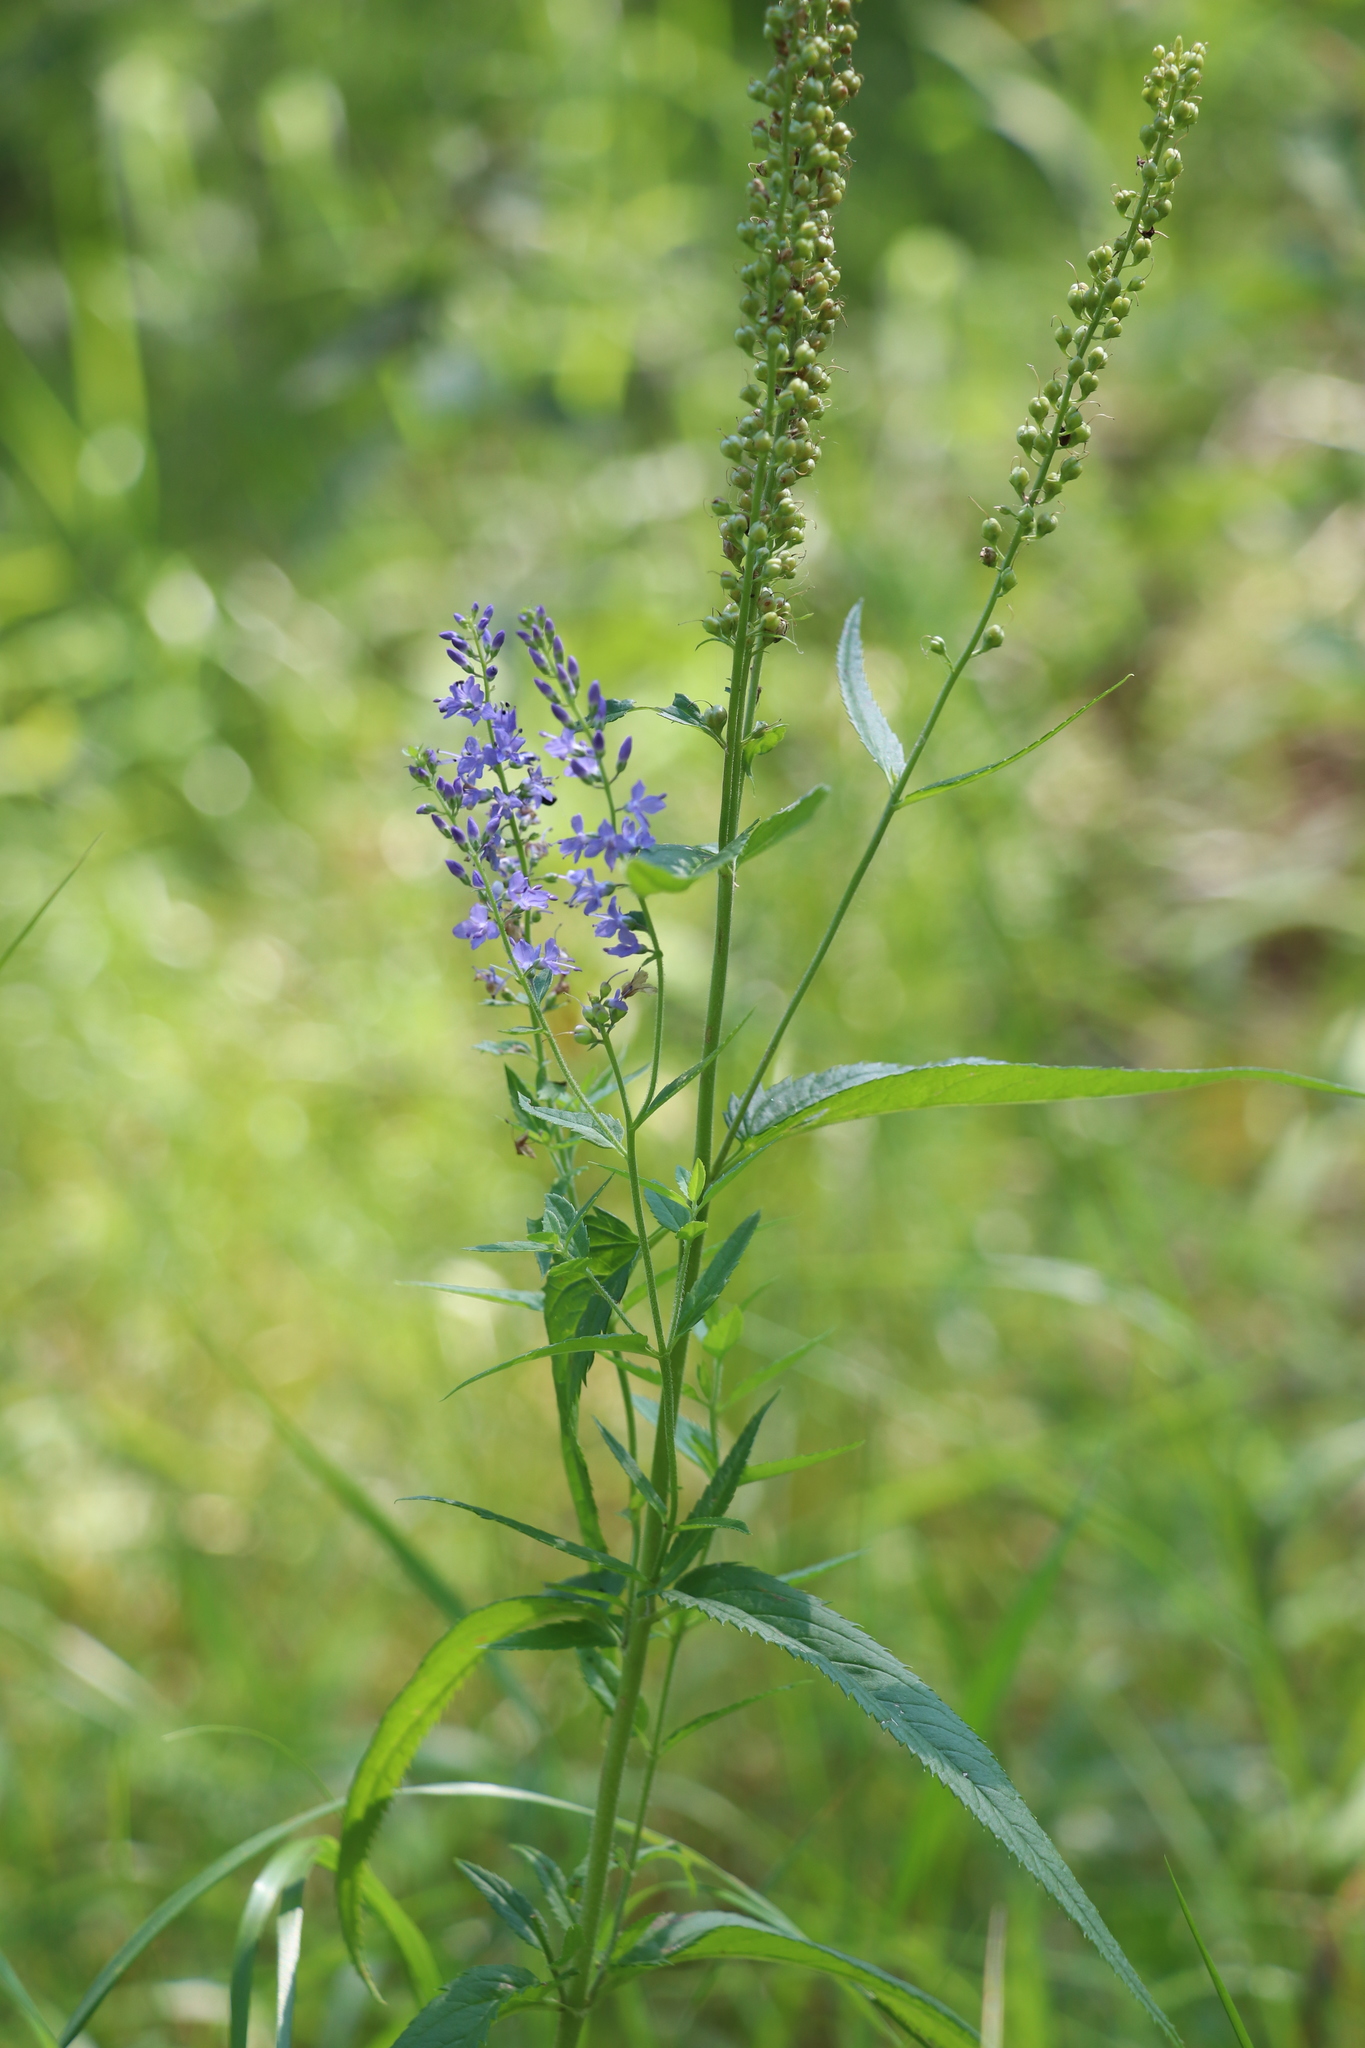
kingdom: Plantae
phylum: Tracheophyta
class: Magnoliopsida
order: Lamiales
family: Plantaginaceae
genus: Veronica
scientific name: Veronica longifolia
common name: Garden speedwell
